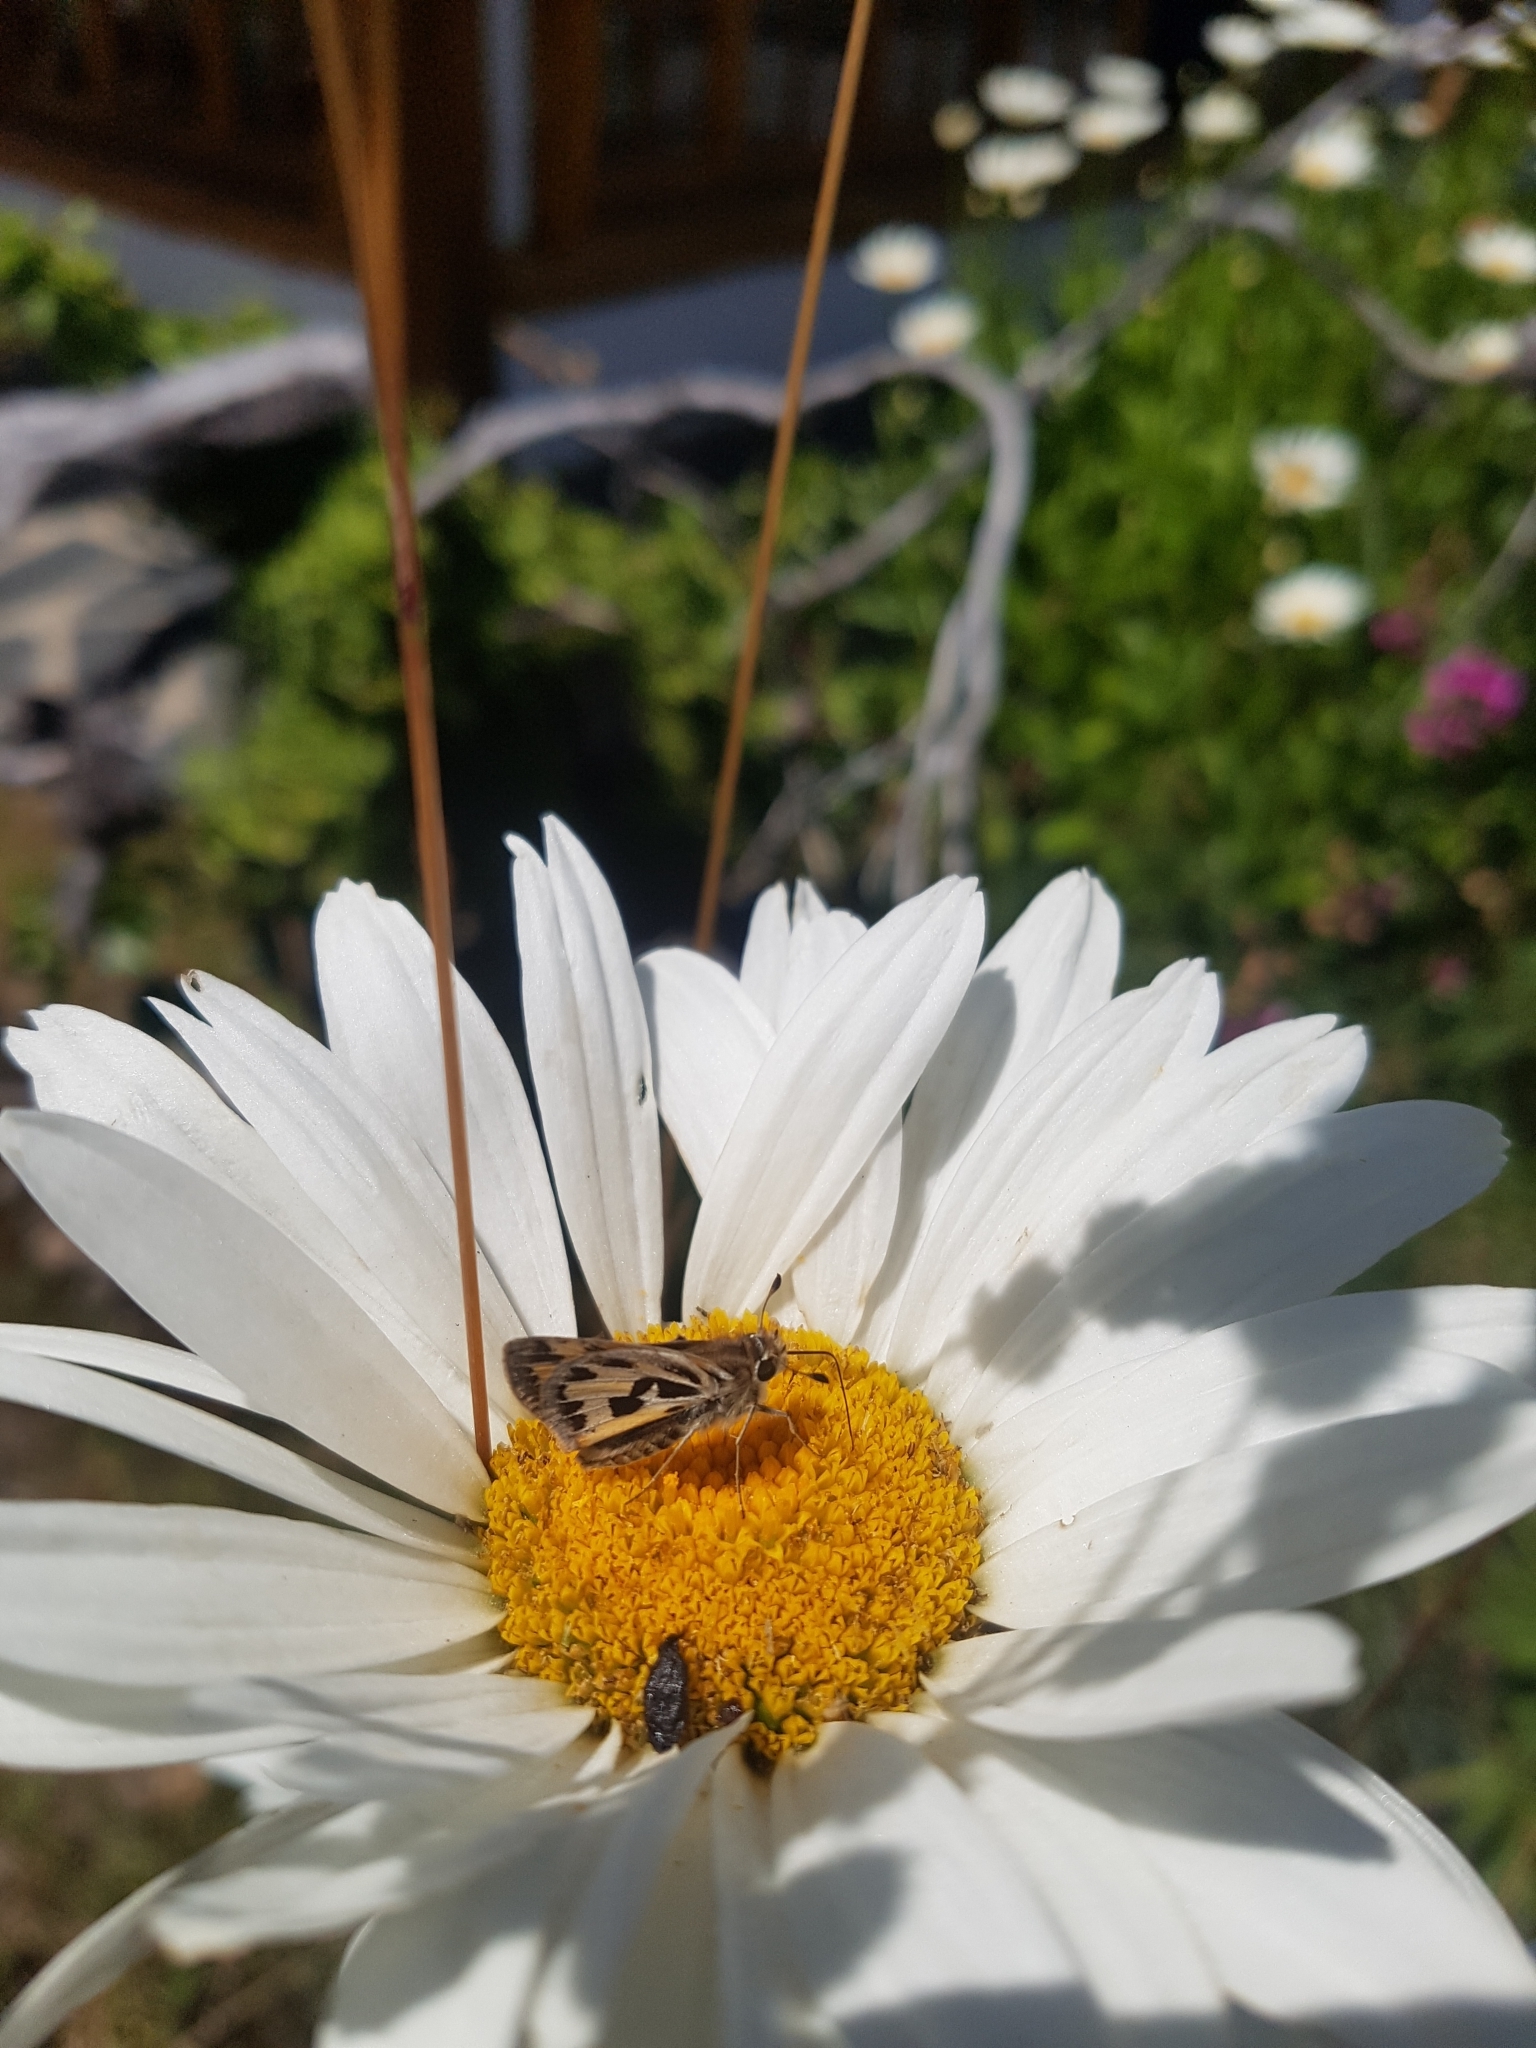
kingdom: Animalia
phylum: Arthropoda
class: Insecta
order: Lepidoptera
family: Hesperiidae
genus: Hylephila
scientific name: Hylephila fasciolata
